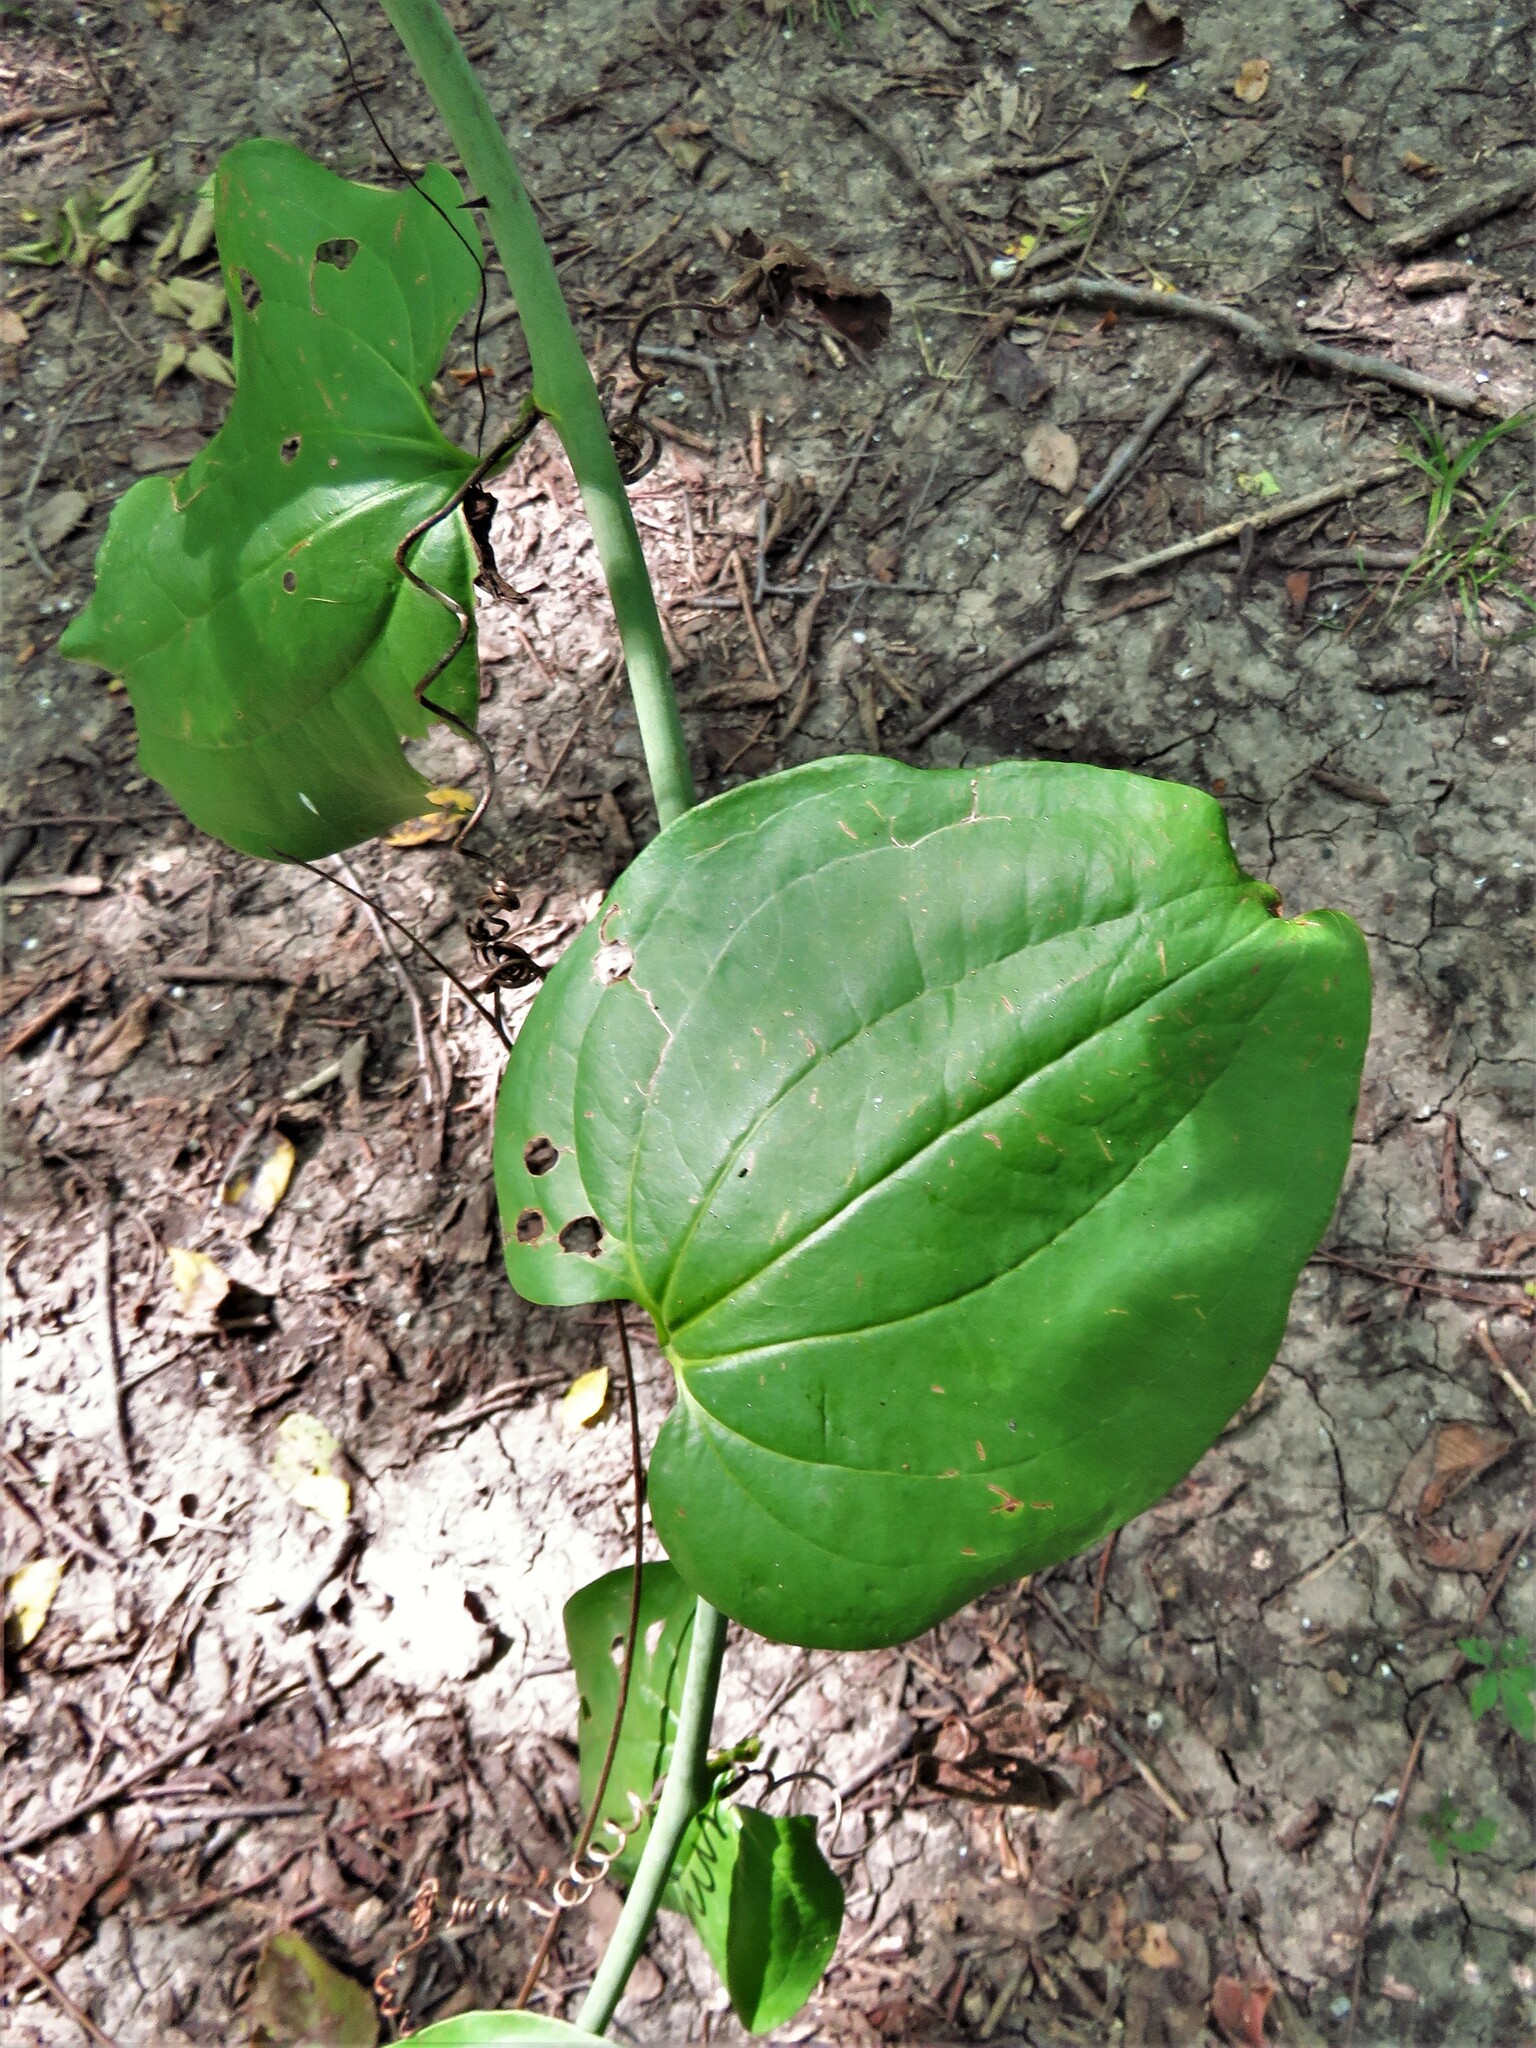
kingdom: Plantae
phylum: Tracheophyta
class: Liliopsida
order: Liliales
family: Smilacaceae
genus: Smilax
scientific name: Smilax tamnoides
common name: Hellfetter
